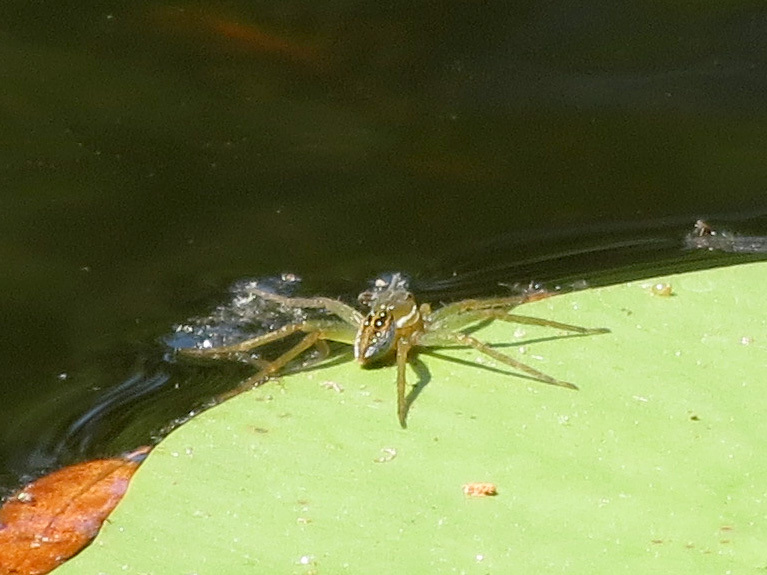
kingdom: Animalia
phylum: Arthropoda
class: Arachnida
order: Araneae
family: Pisauridae
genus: Dolomedes
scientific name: Dolomedes triton
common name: Six-spotted fishing spider
